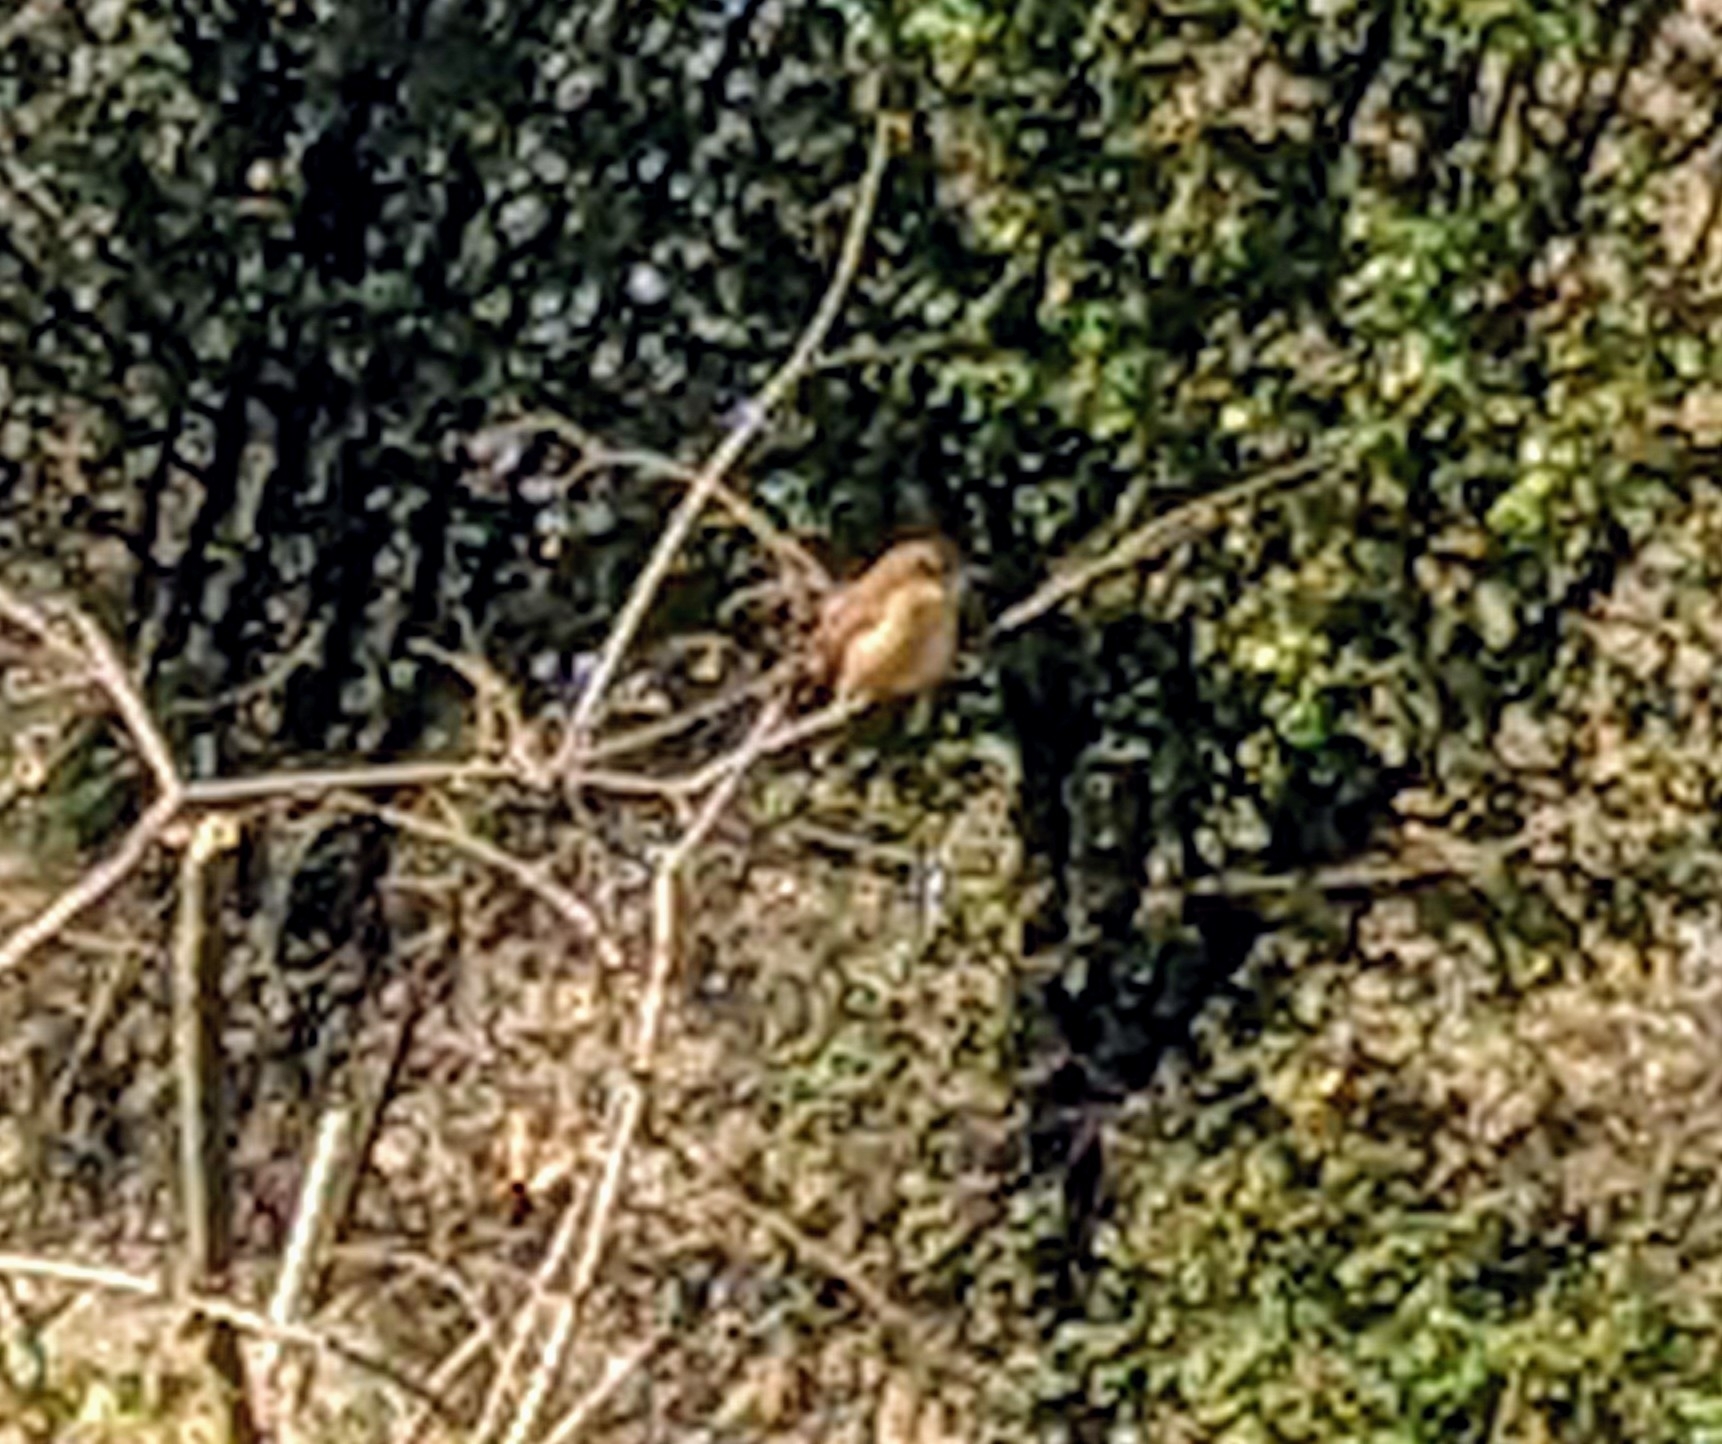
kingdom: Animalia
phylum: Chordata
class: Aves
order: Passeriformes
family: Troglodytidae
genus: Thryothorus
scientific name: Thryothorus ludovicianus
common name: Carolina wren
